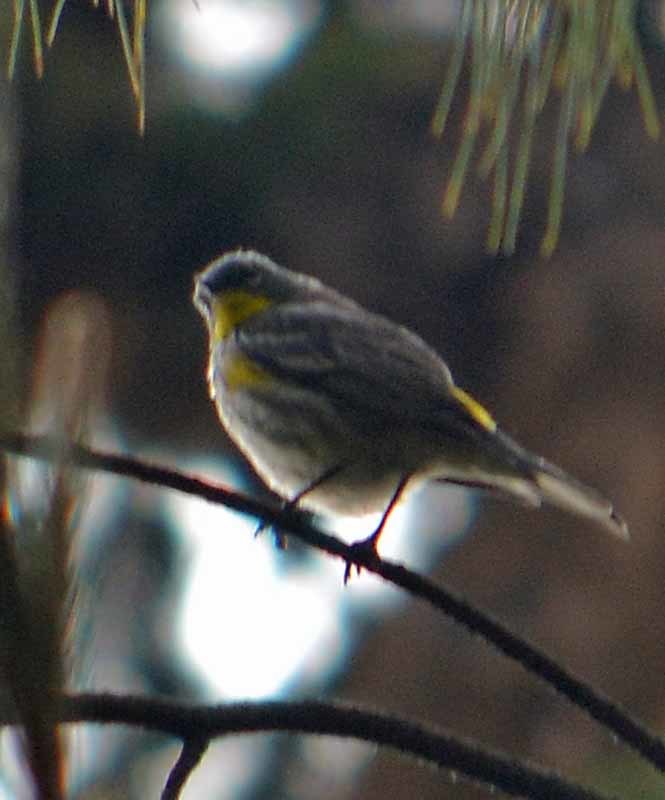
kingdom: Animalia
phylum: Chordata
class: Aves
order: Passeriformes
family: Parulidae
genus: Setophaga
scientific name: Setophaga coronata
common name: Myrtle warbler
